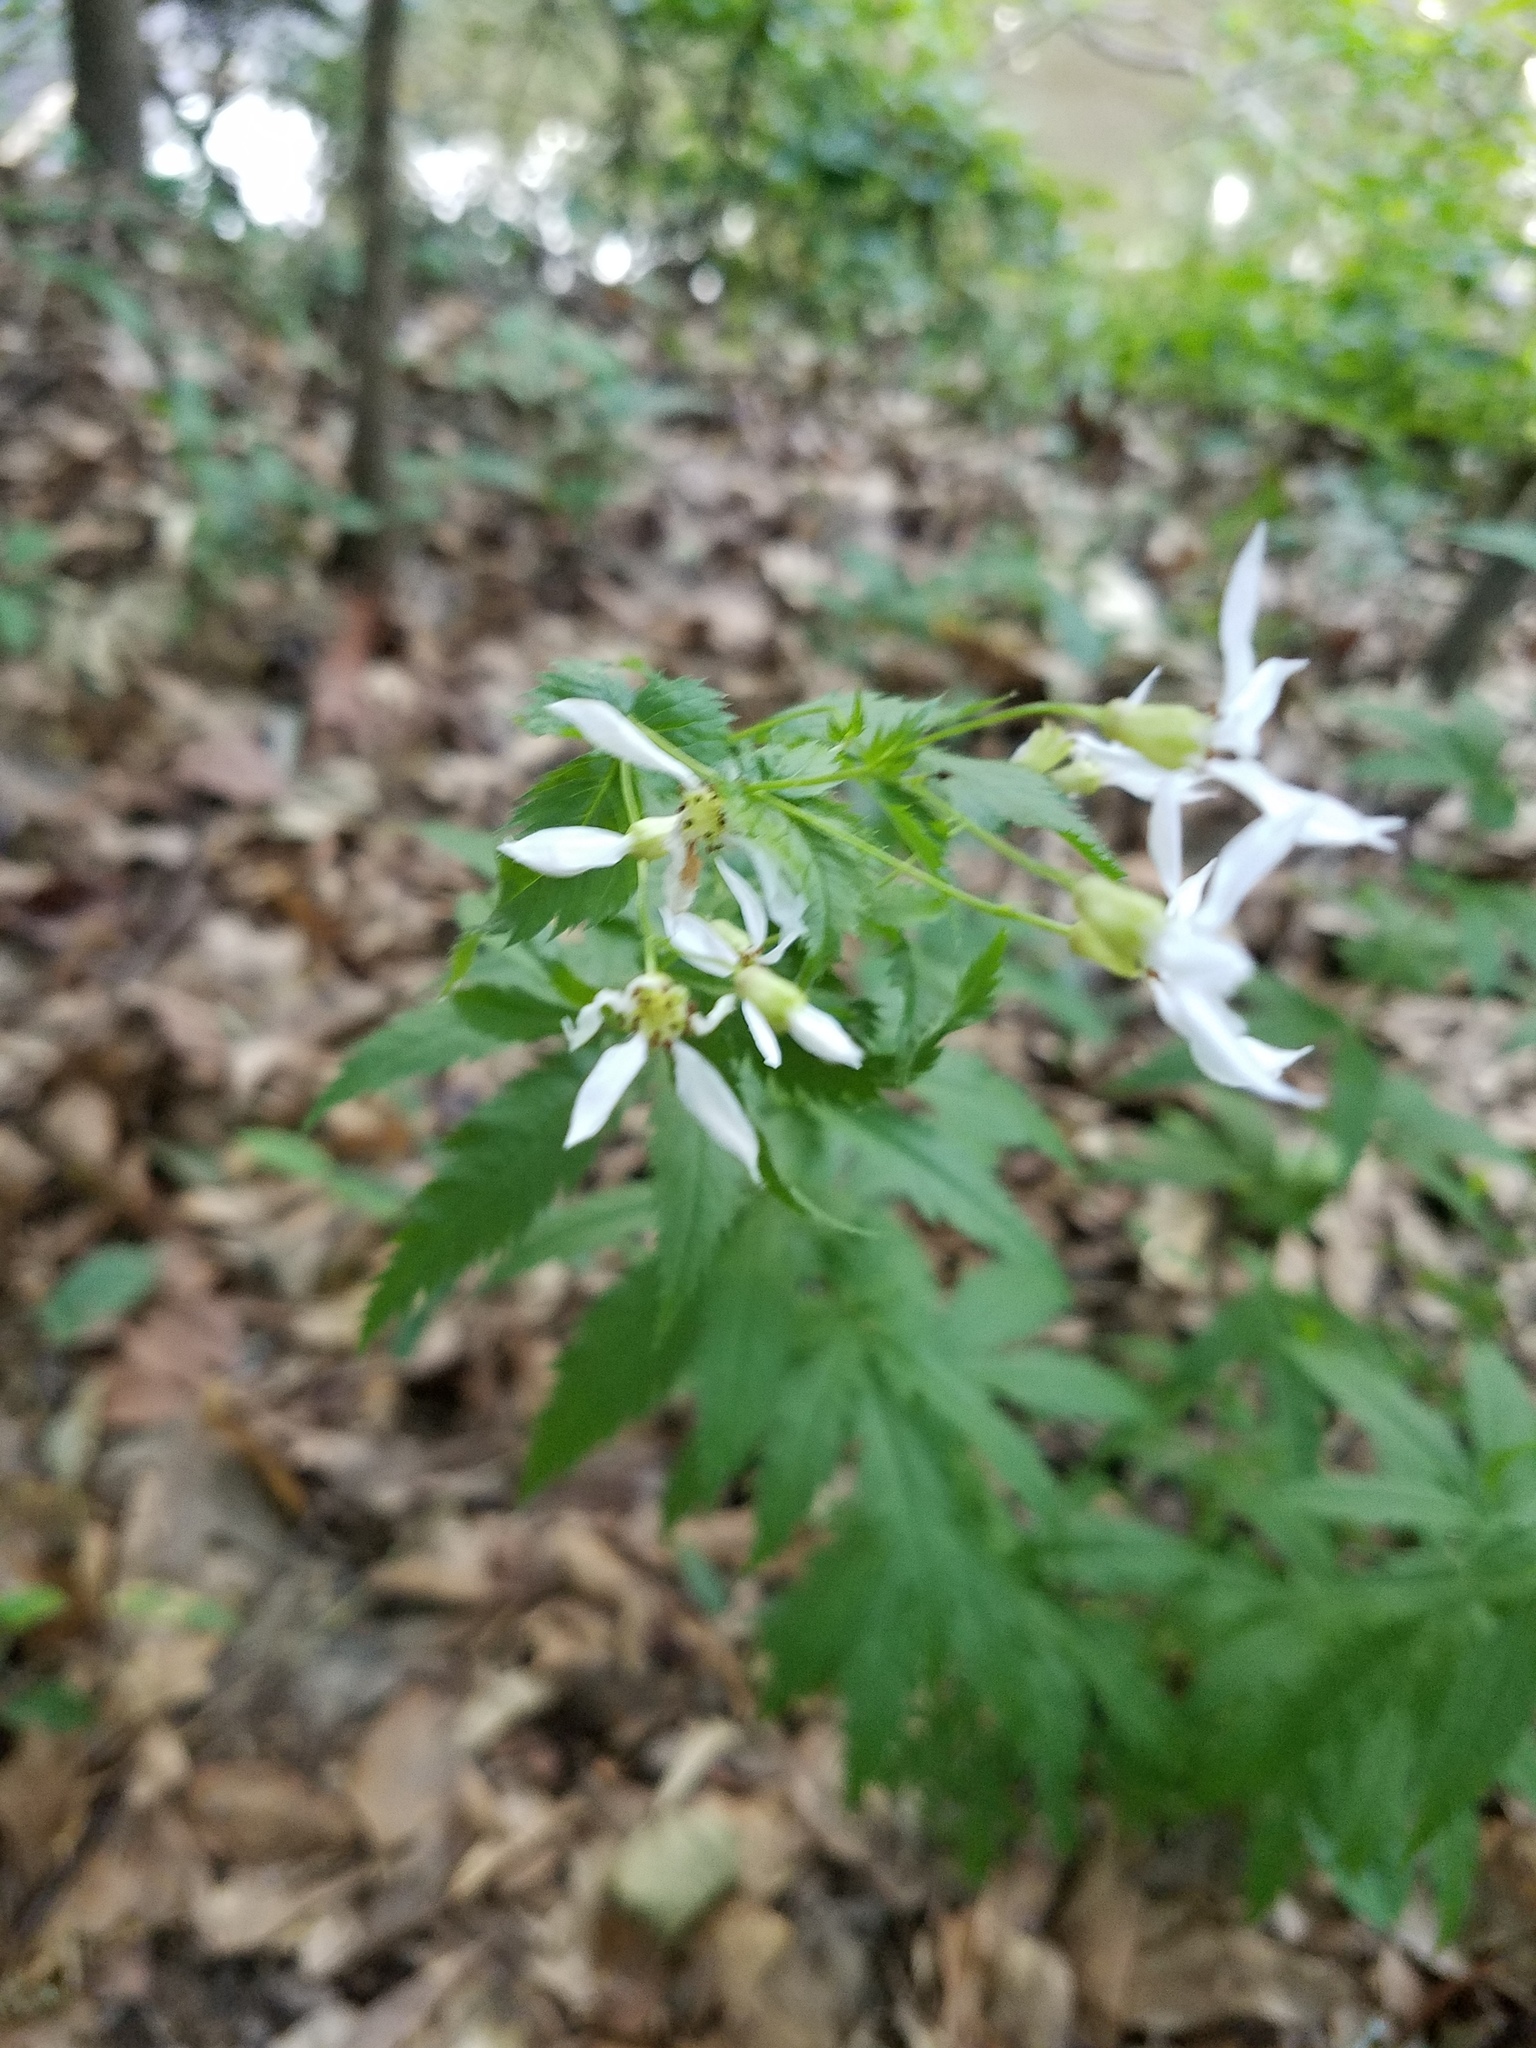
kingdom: Plantae
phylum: Tracheophyta
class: Magnoliopsida
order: Rosales
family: Rosaceae
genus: Gillenia
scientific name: Gillenia stipulata
